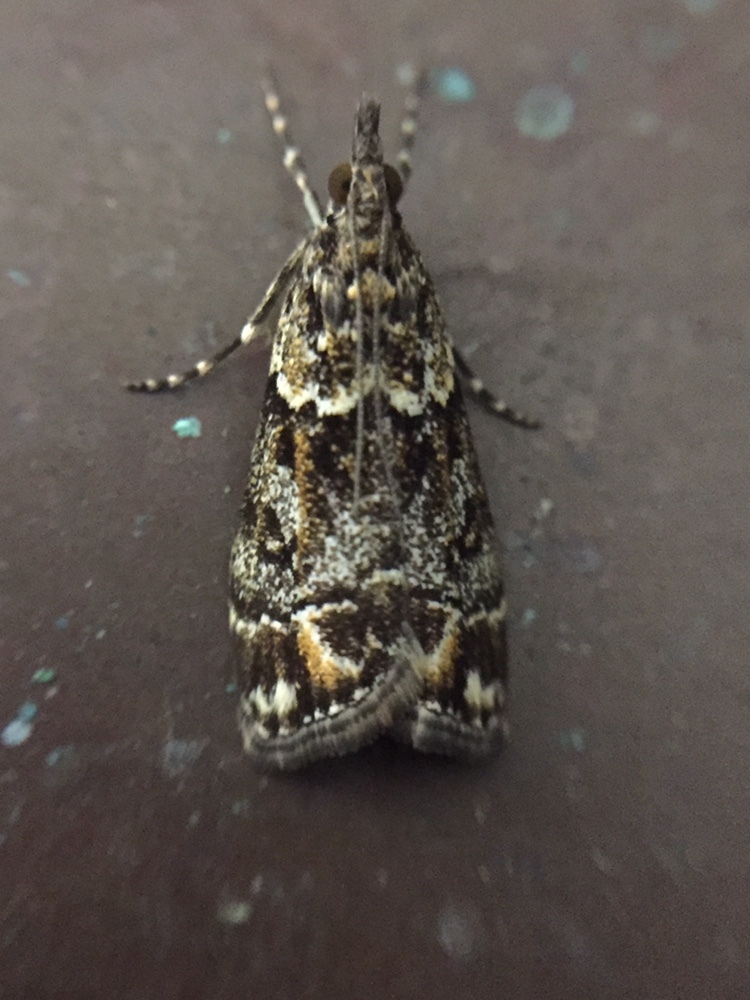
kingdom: Animalia
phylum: Arthropoda
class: Insecta
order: Lepidoptera
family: Crambidae
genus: Eudonia
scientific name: Eudonia minualis
